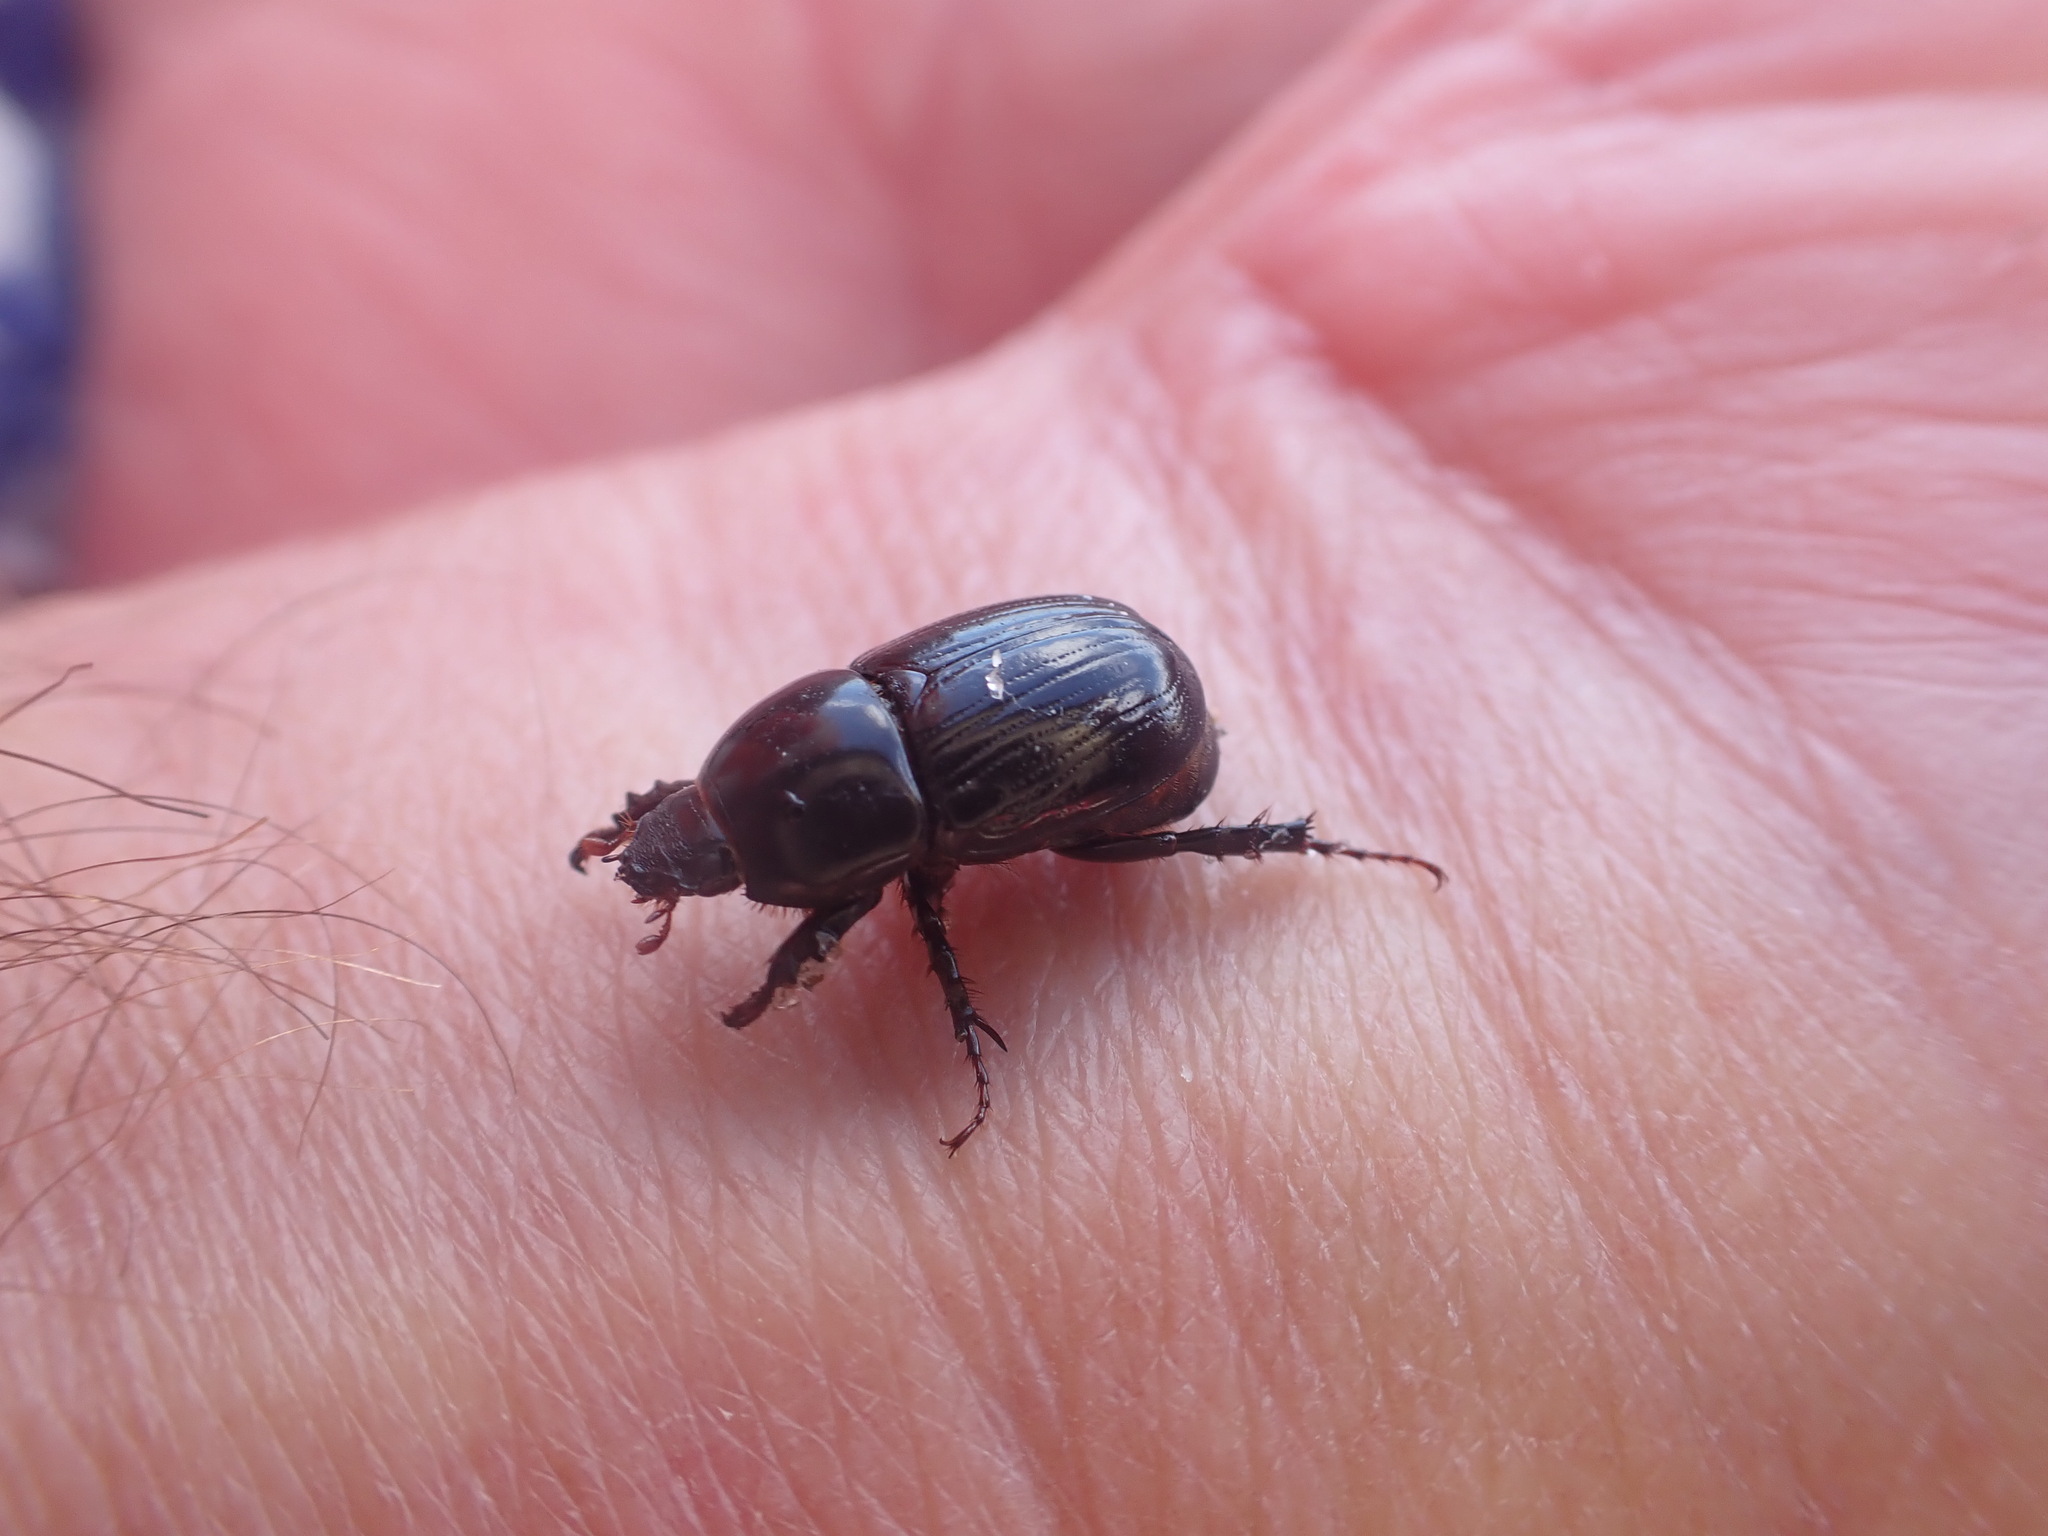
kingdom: Animalia
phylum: Arthropoda
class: Insecta
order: Coleoptera
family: Scarabaeidae
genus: Heteronychus
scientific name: Heteronychus arator
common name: African black beetle
